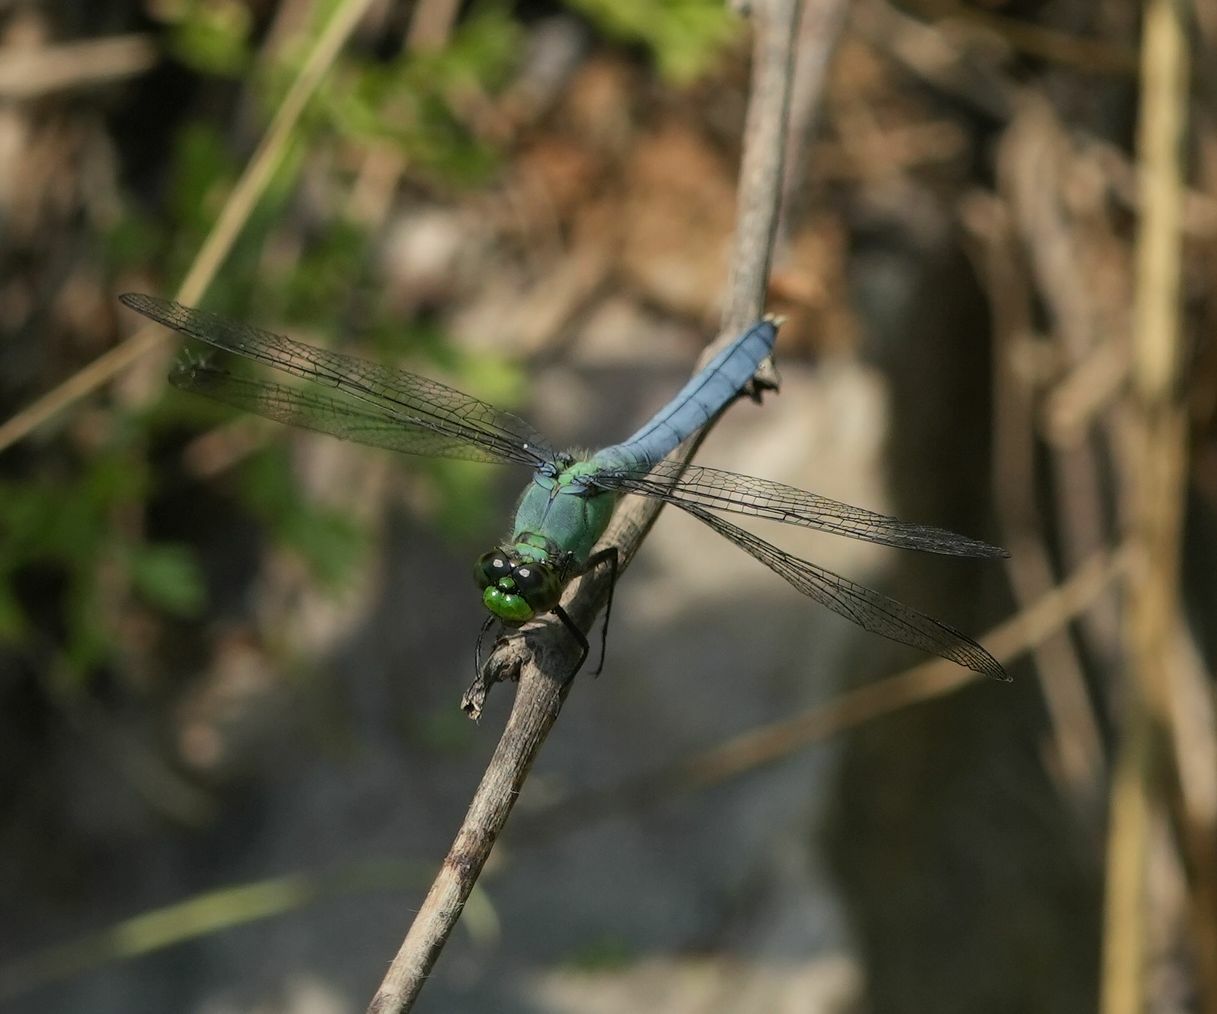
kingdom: Animalia
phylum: Arthropoda
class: Insecta
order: Odonata
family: Libellulidae
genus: Erythemis
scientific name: Erythemis simplicicollis
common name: Eastern pondhawk
